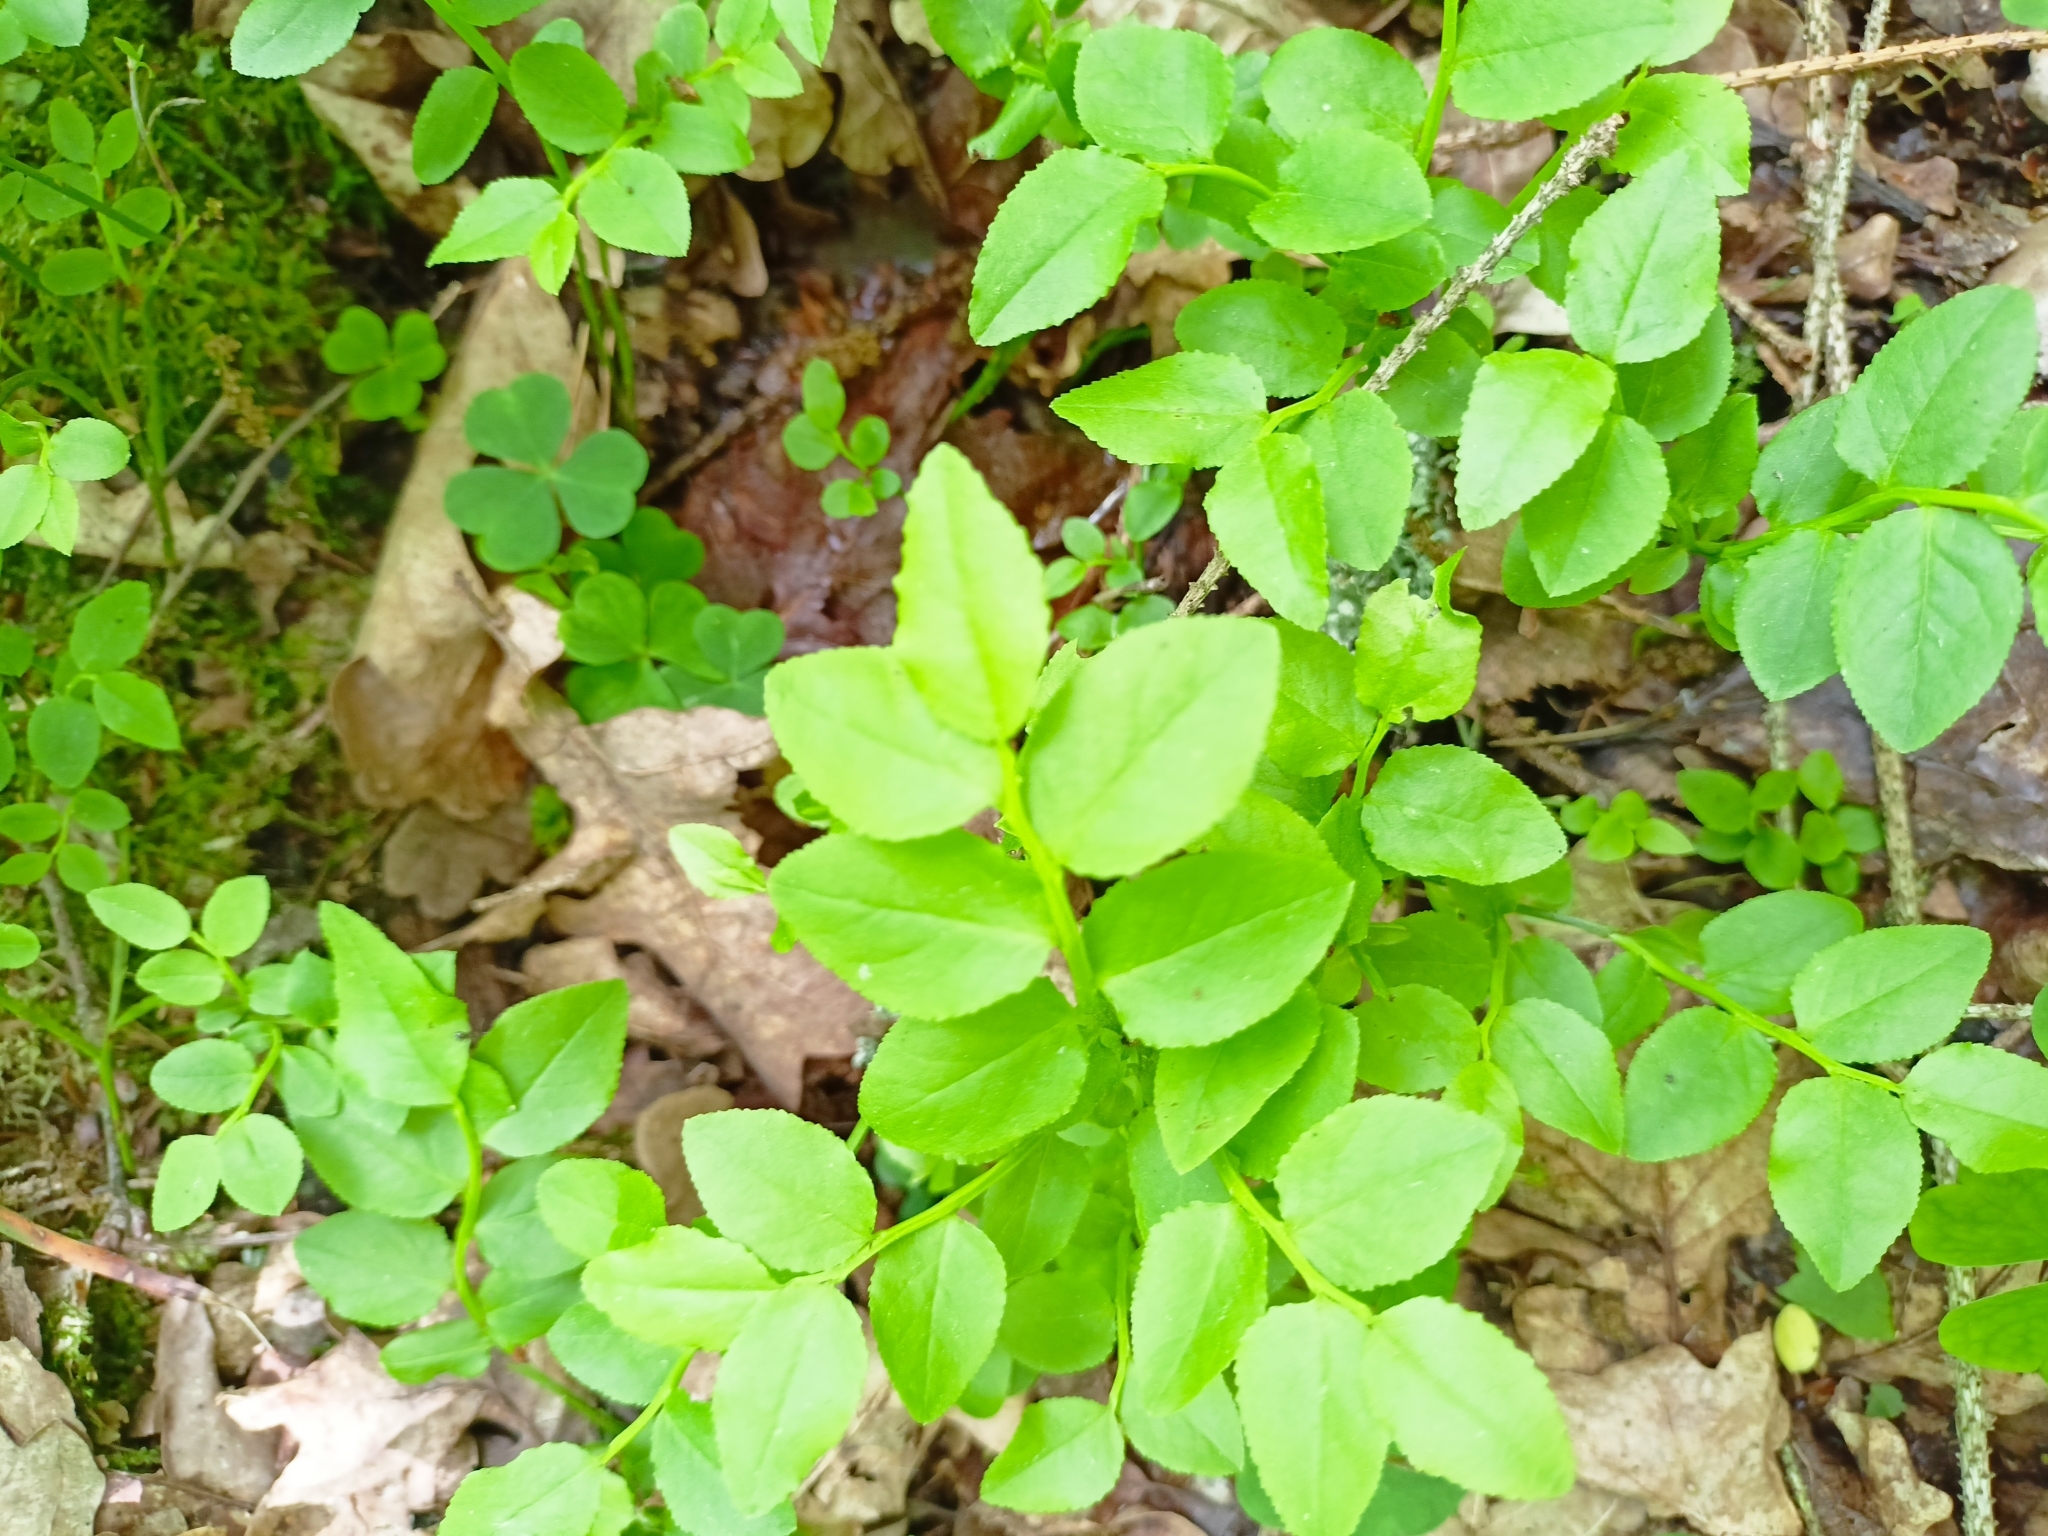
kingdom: Plantae
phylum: Tracheophyta
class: Magnoliopsida
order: Ericales
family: Ericaceae
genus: Vaccinium
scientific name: Vaccinium myrtillus
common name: Bilberry
